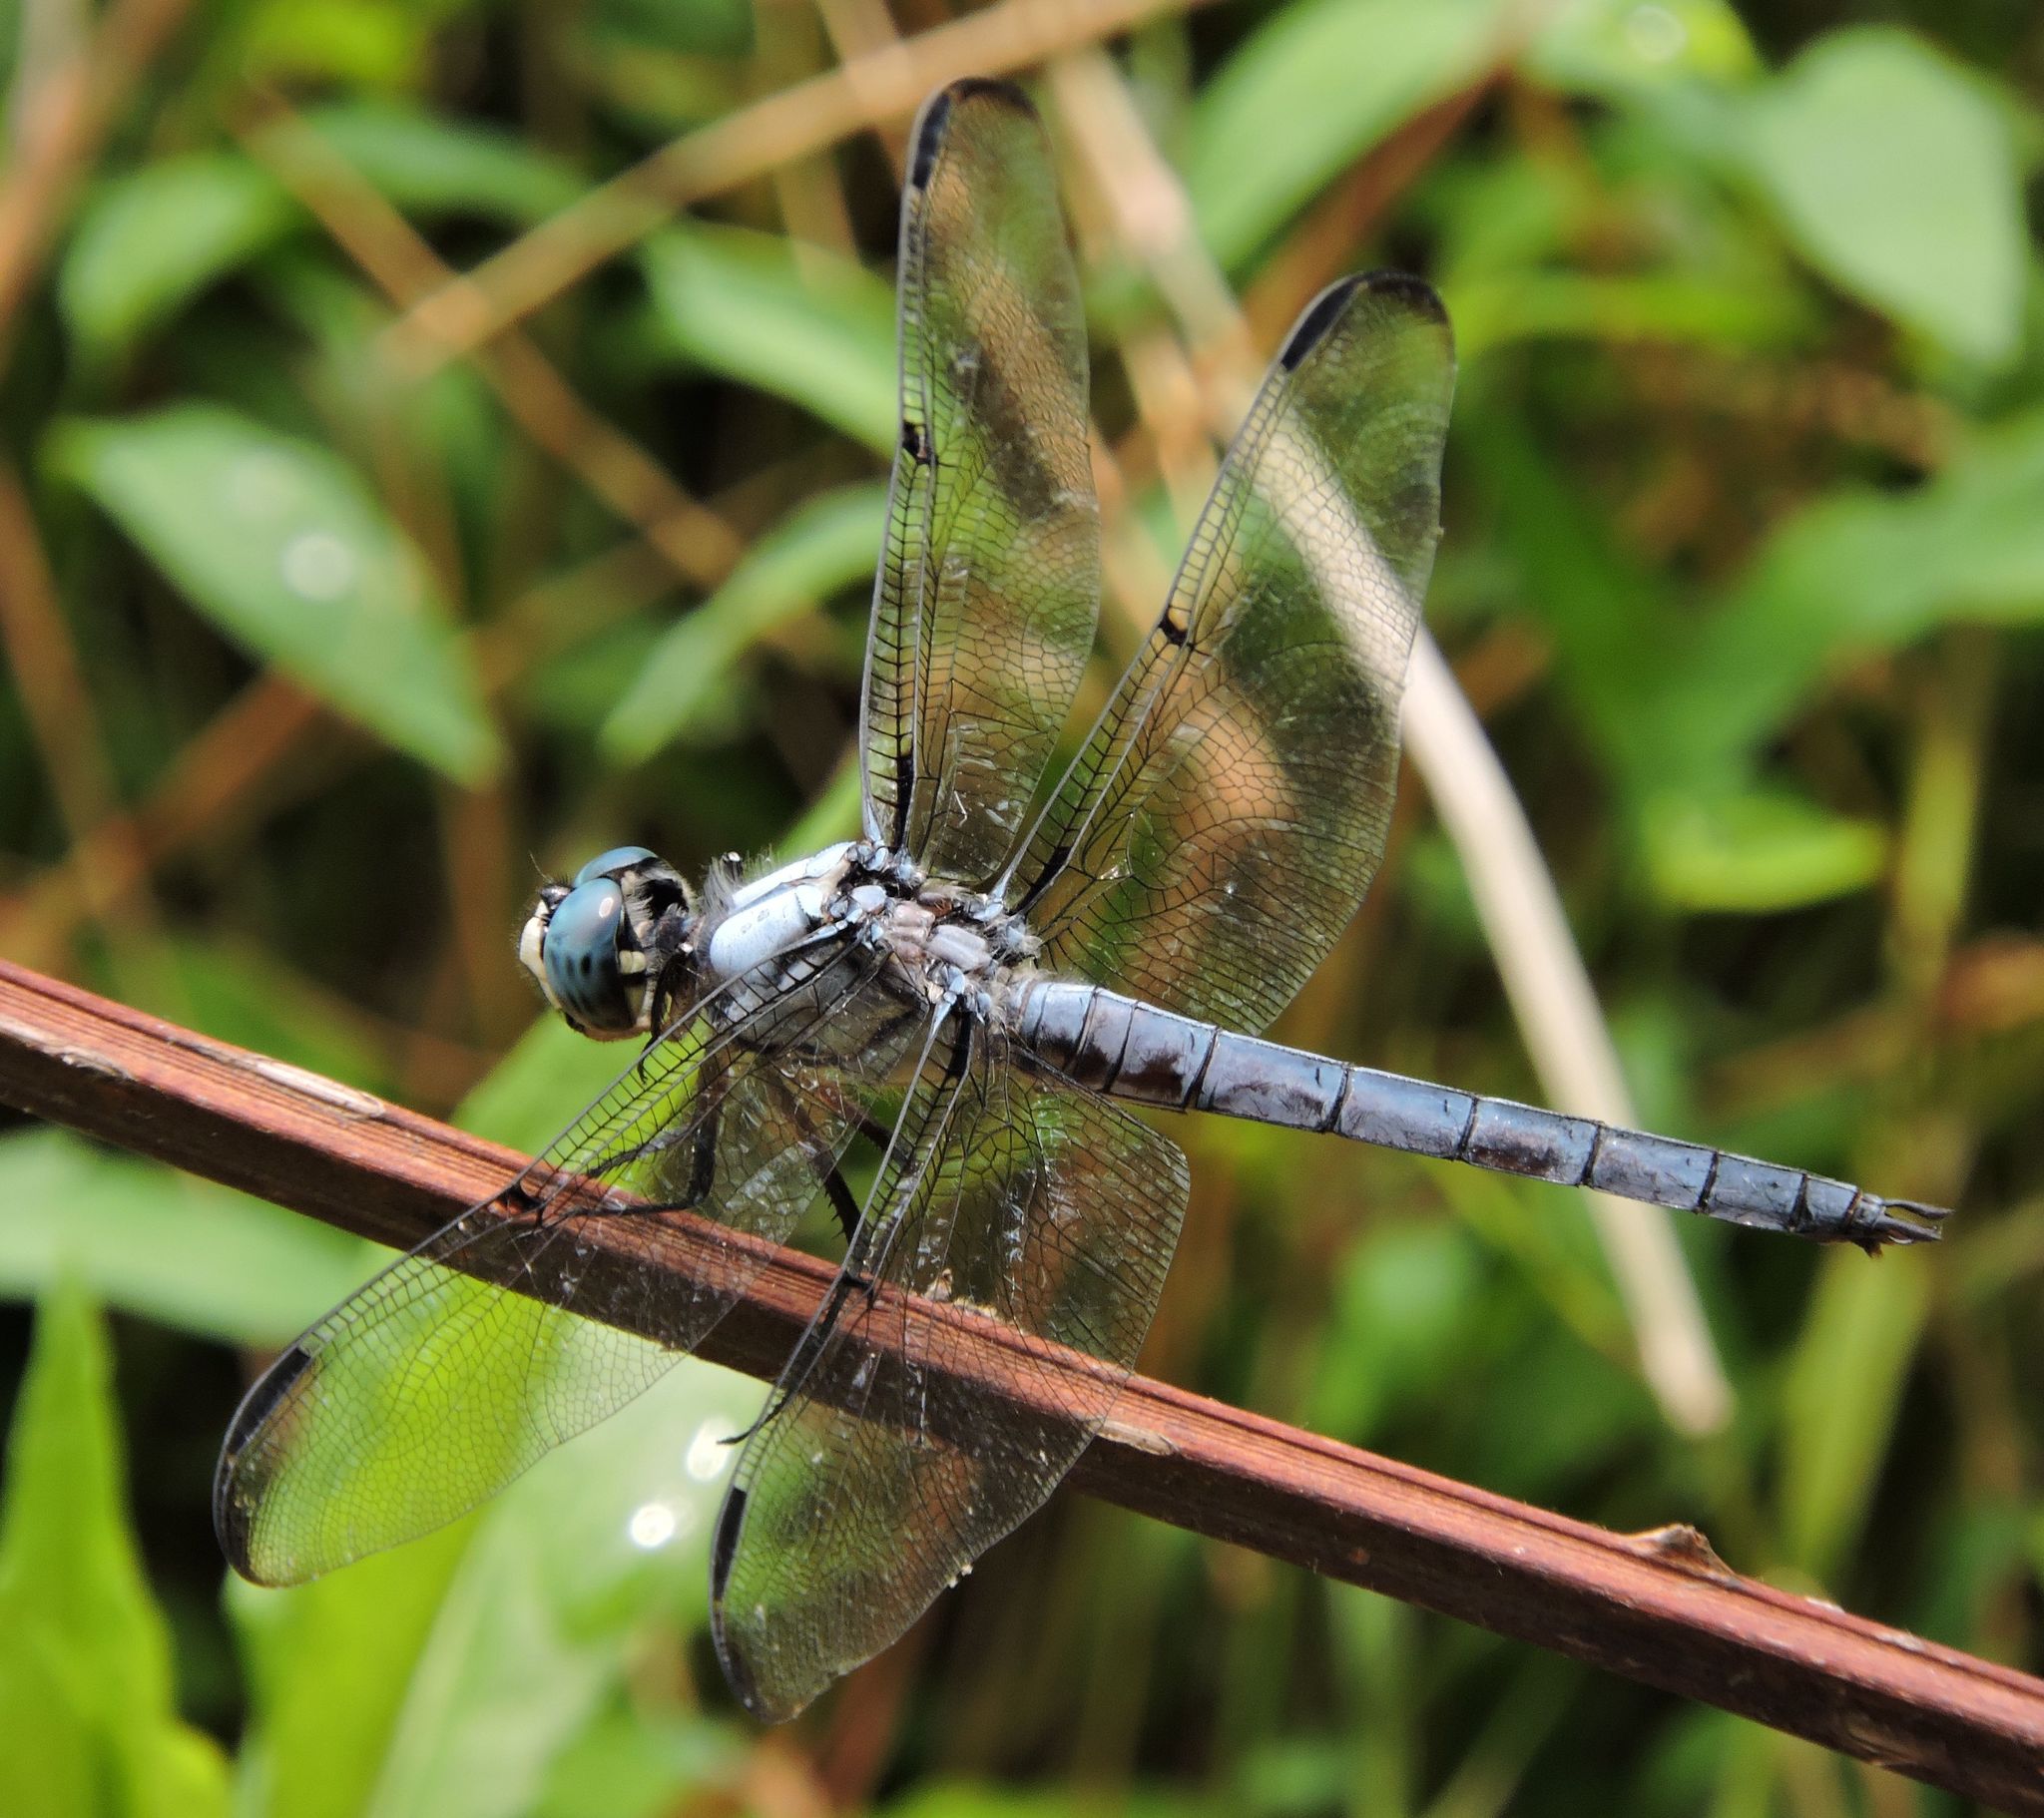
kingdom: Animalia
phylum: Arthropoda
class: Insecta
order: Odonata
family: Libellulidae
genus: Libellula
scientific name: Libellula vibrans
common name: Great blue skimmer
